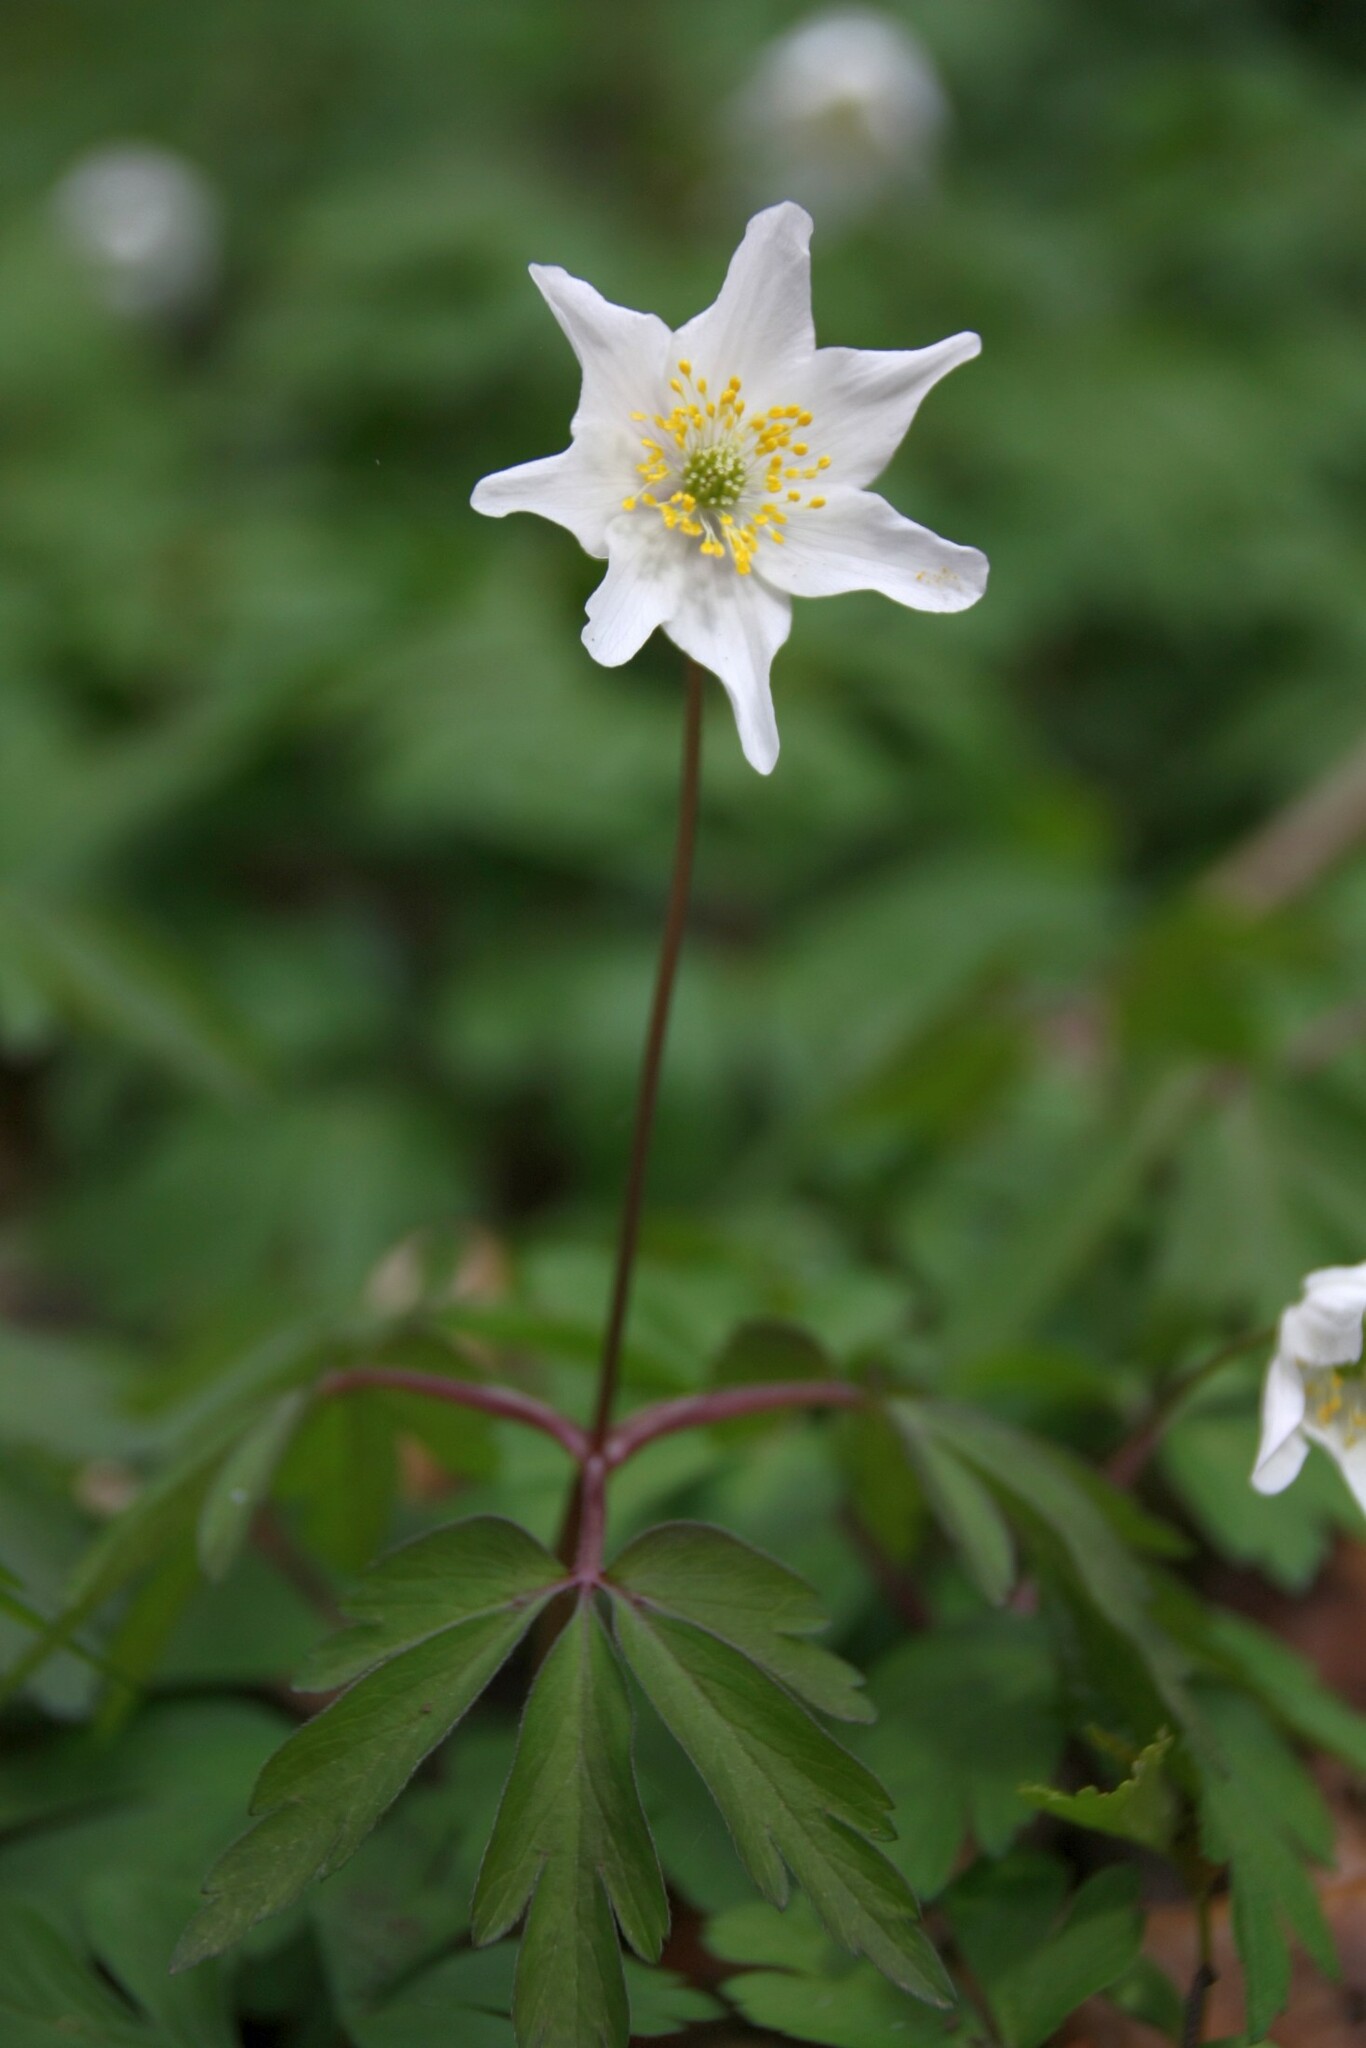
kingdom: Plantae
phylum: Tracheophyta
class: Magnoliopsida
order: Ranunculales
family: Ranunculaceae
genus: Anemone
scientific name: Anemone nemorosa
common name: Wood anemone
